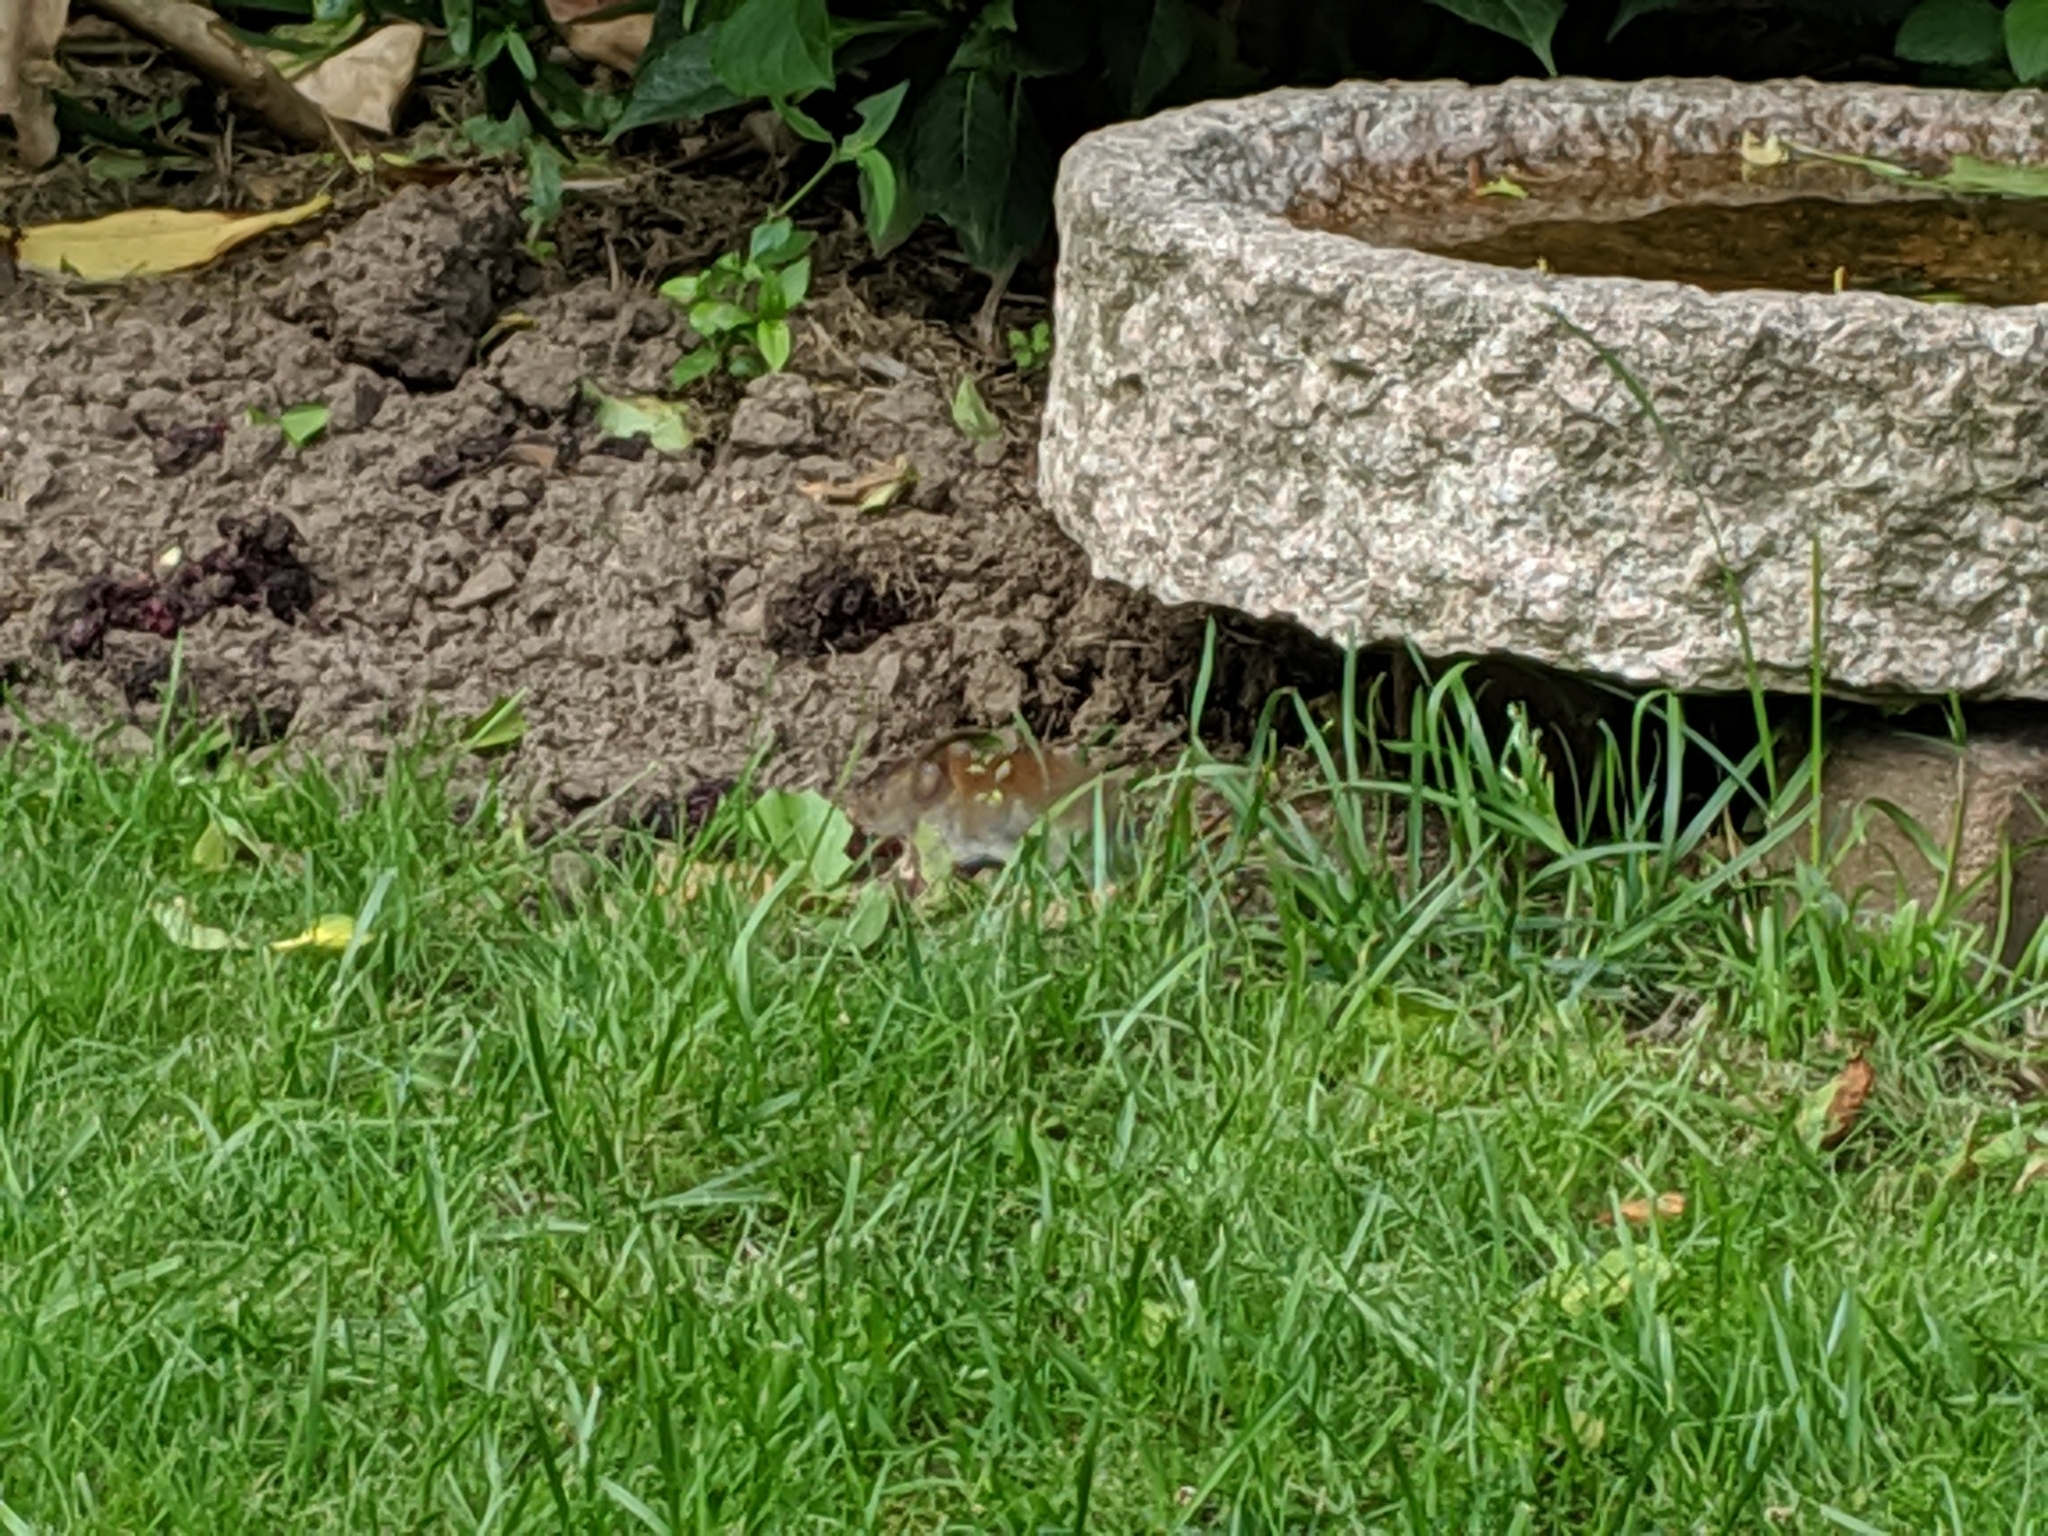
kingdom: Animalia
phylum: Chordata
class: Mammalia
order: Rodentia
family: Cricetidae
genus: Myodes
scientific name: Myodes glareolus
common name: Bank vole
